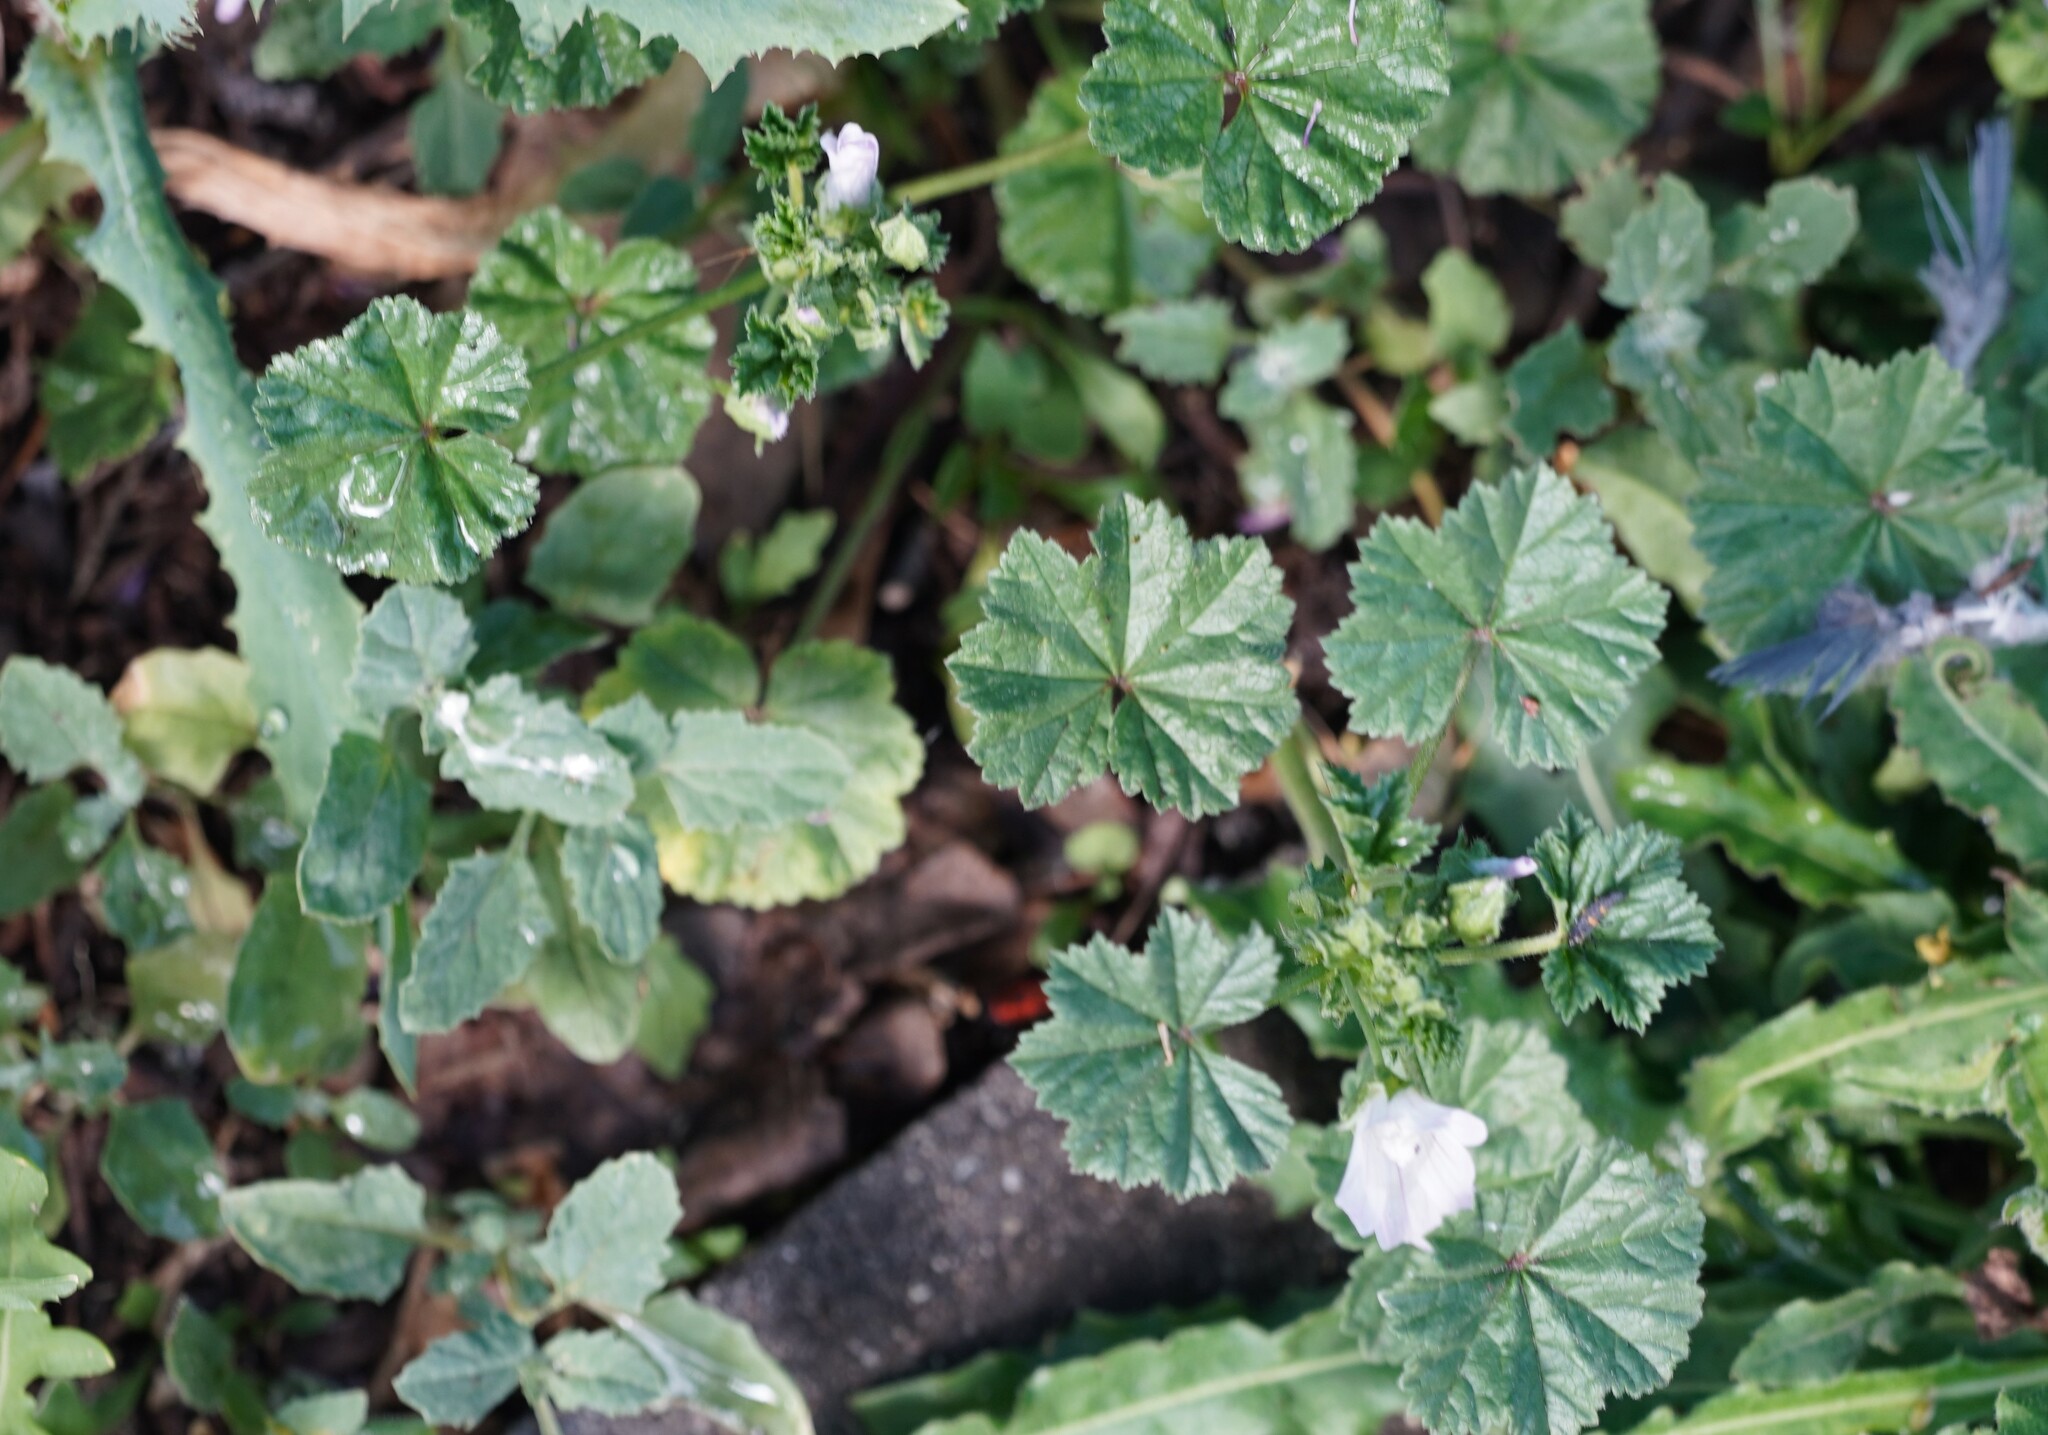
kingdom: Plantae
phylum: Tracheophyta
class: Magnoliopsida
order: Malvales
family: Malvaceae
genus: Malva
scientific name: Malva neglecta
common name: Common mallow
